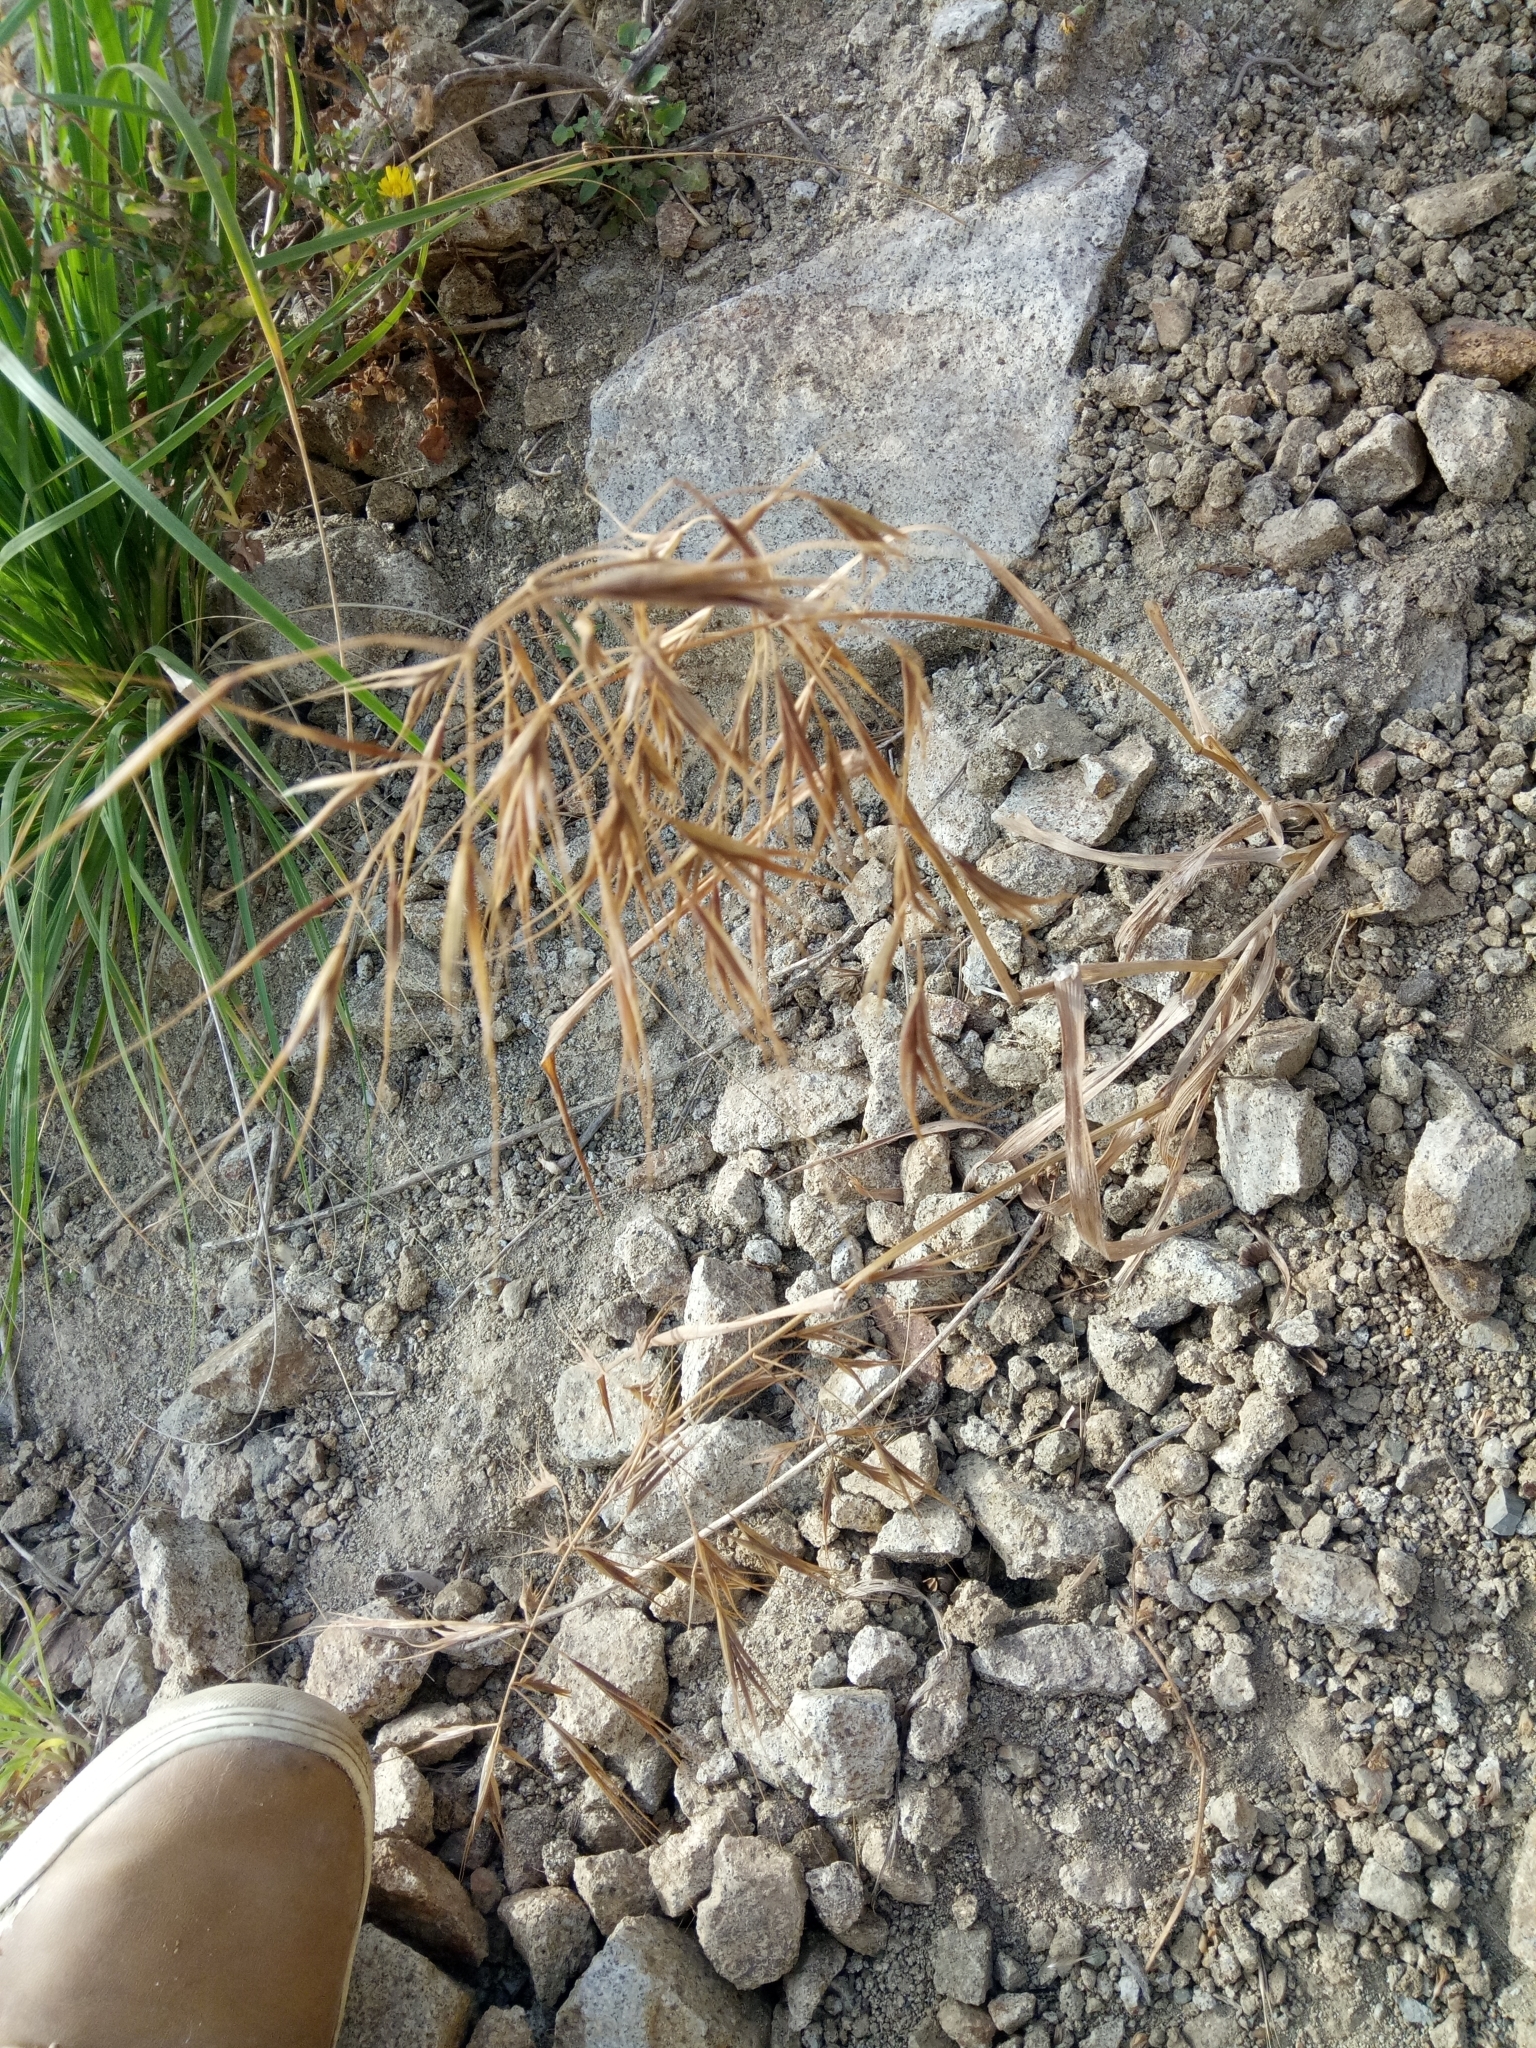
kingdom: Plantae
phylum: Tracheophyta
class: Liliopsida
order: Poales
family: Poaceae
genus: Bromus
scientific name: Bromus diandrus
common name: Ripgut brome
